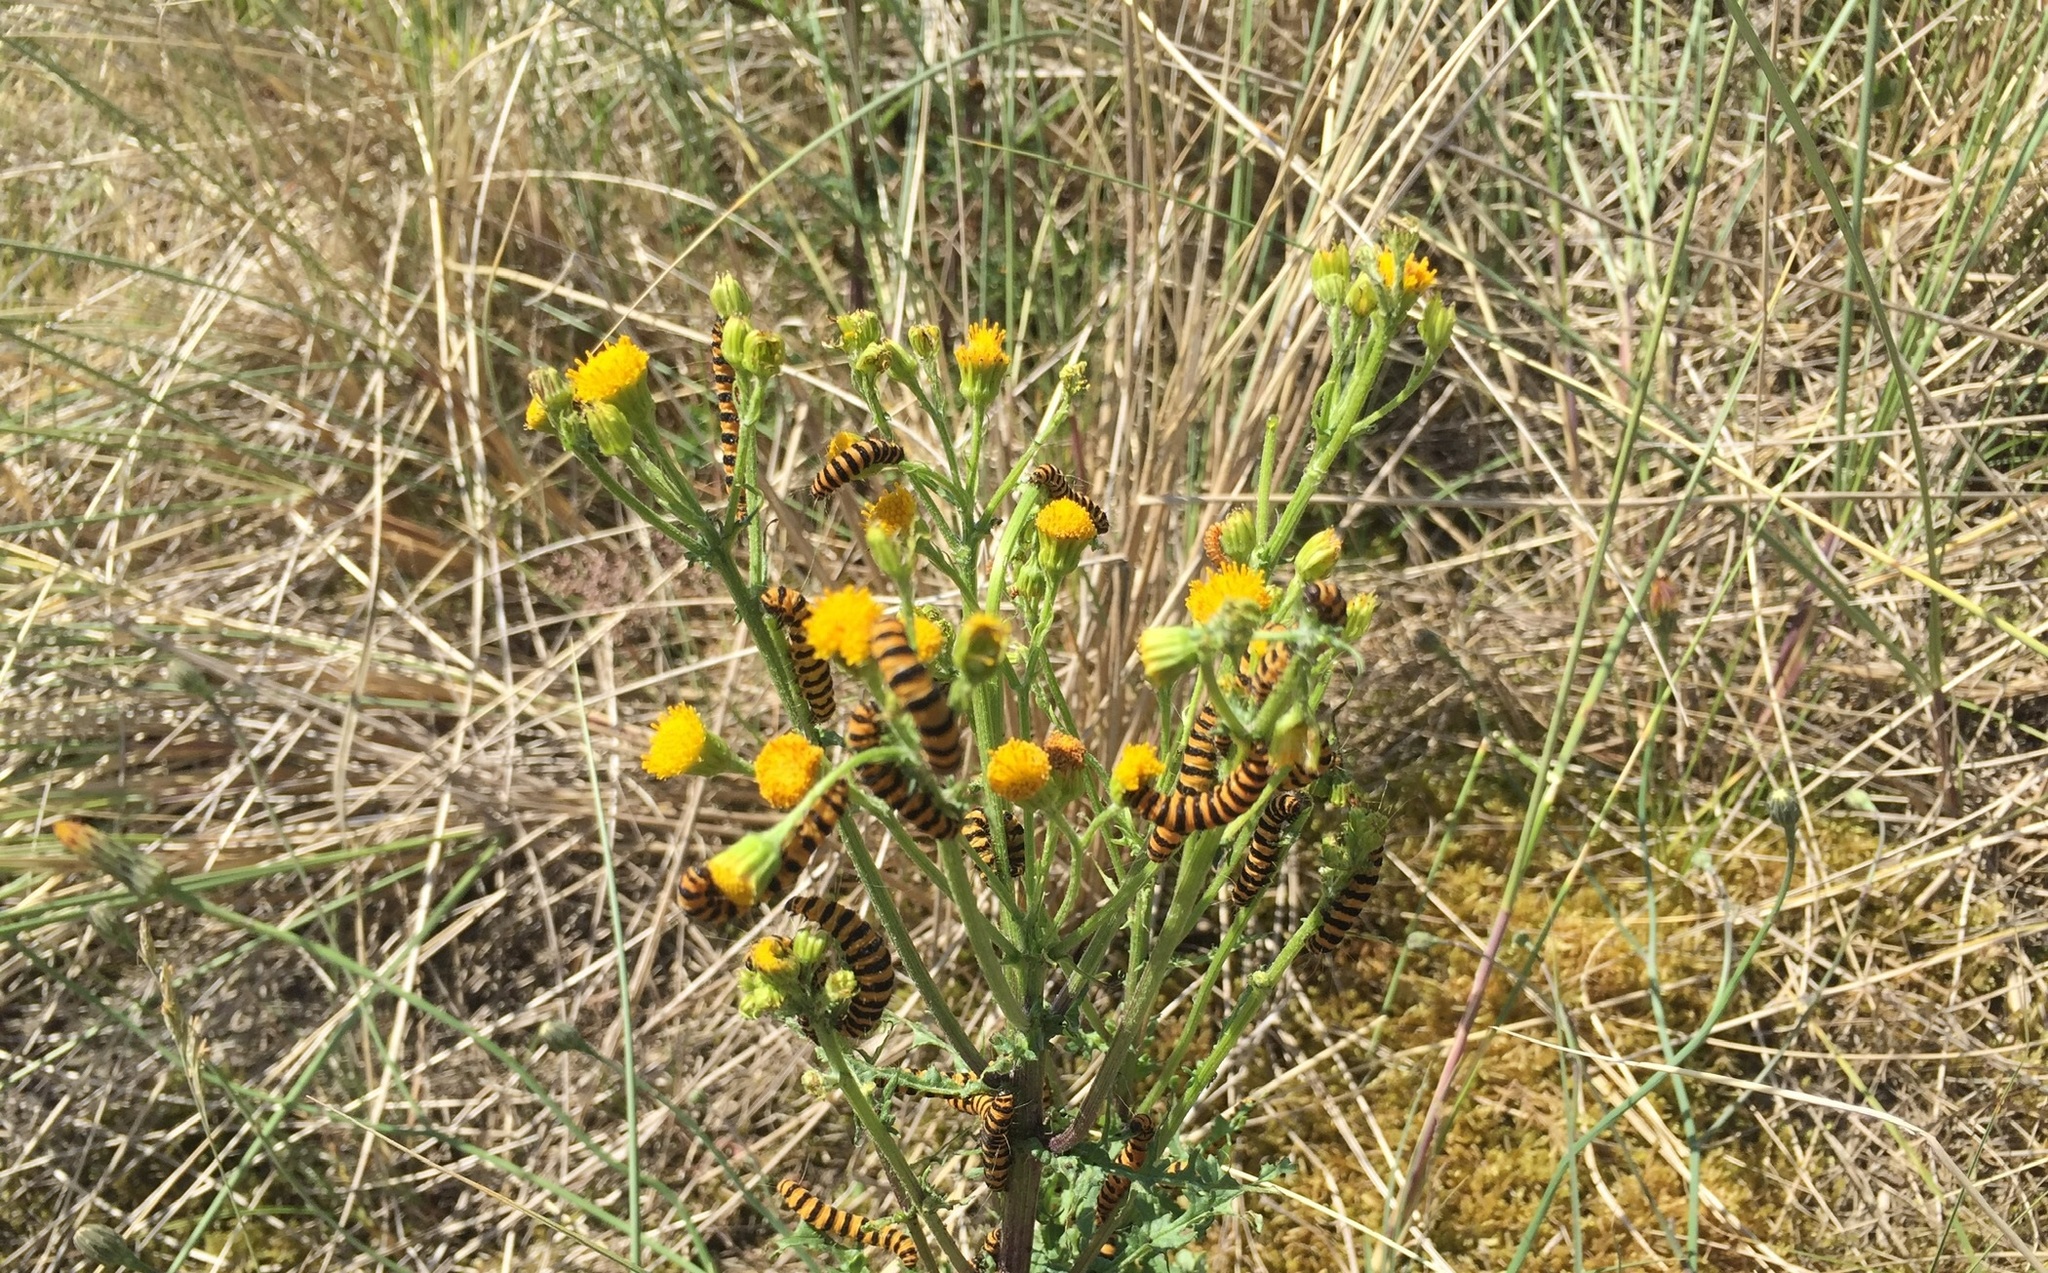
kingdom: Animalia
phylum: Arthropoda
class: Insecta
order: Lepidoptera
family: Erebidae
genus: Tyria
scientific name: Tyria jacobaeae
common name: Cinnabar
